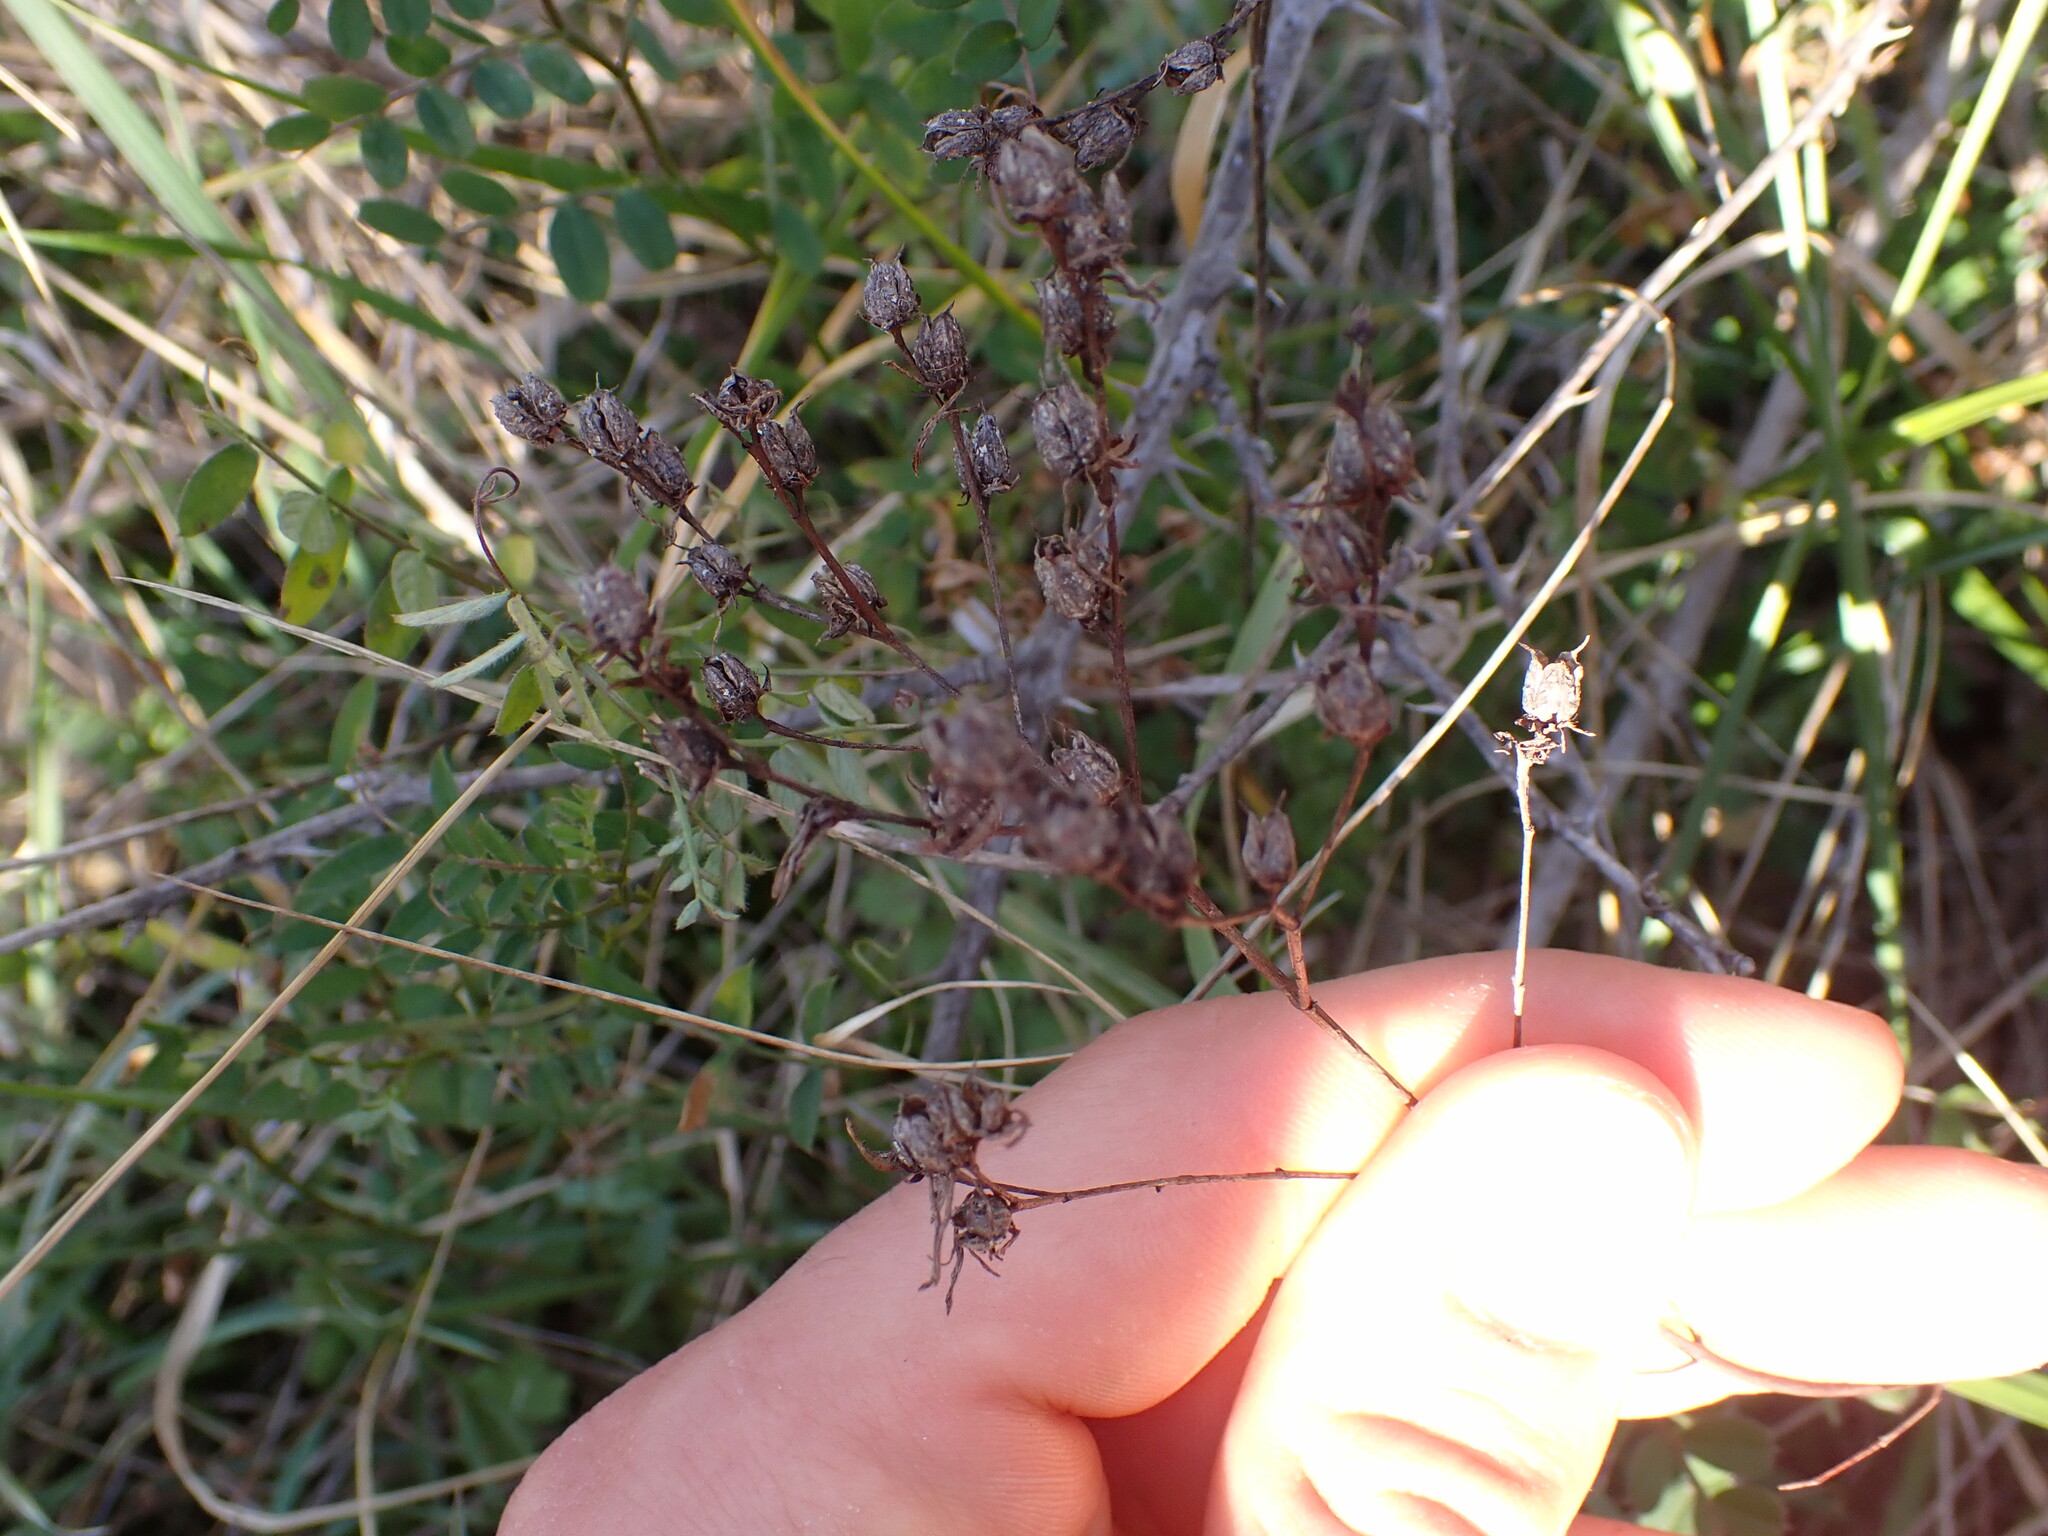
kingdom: Plantae
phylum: Tracheophyta
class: Magnoliopsida
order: Malpighiales
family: Hypericaceae
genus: Hypericum
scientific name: Hypericum perforatum
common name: Common st. johnswort
